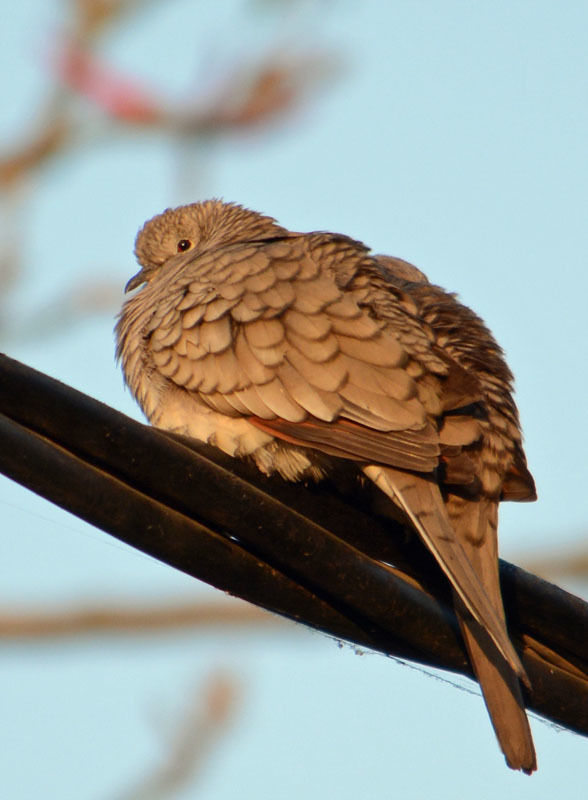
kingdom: Animalia
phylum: Chordata
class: Aves
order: Columbiformes
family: Columbidae
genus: Columbina
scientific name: Columbina inca
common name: Inca dove
